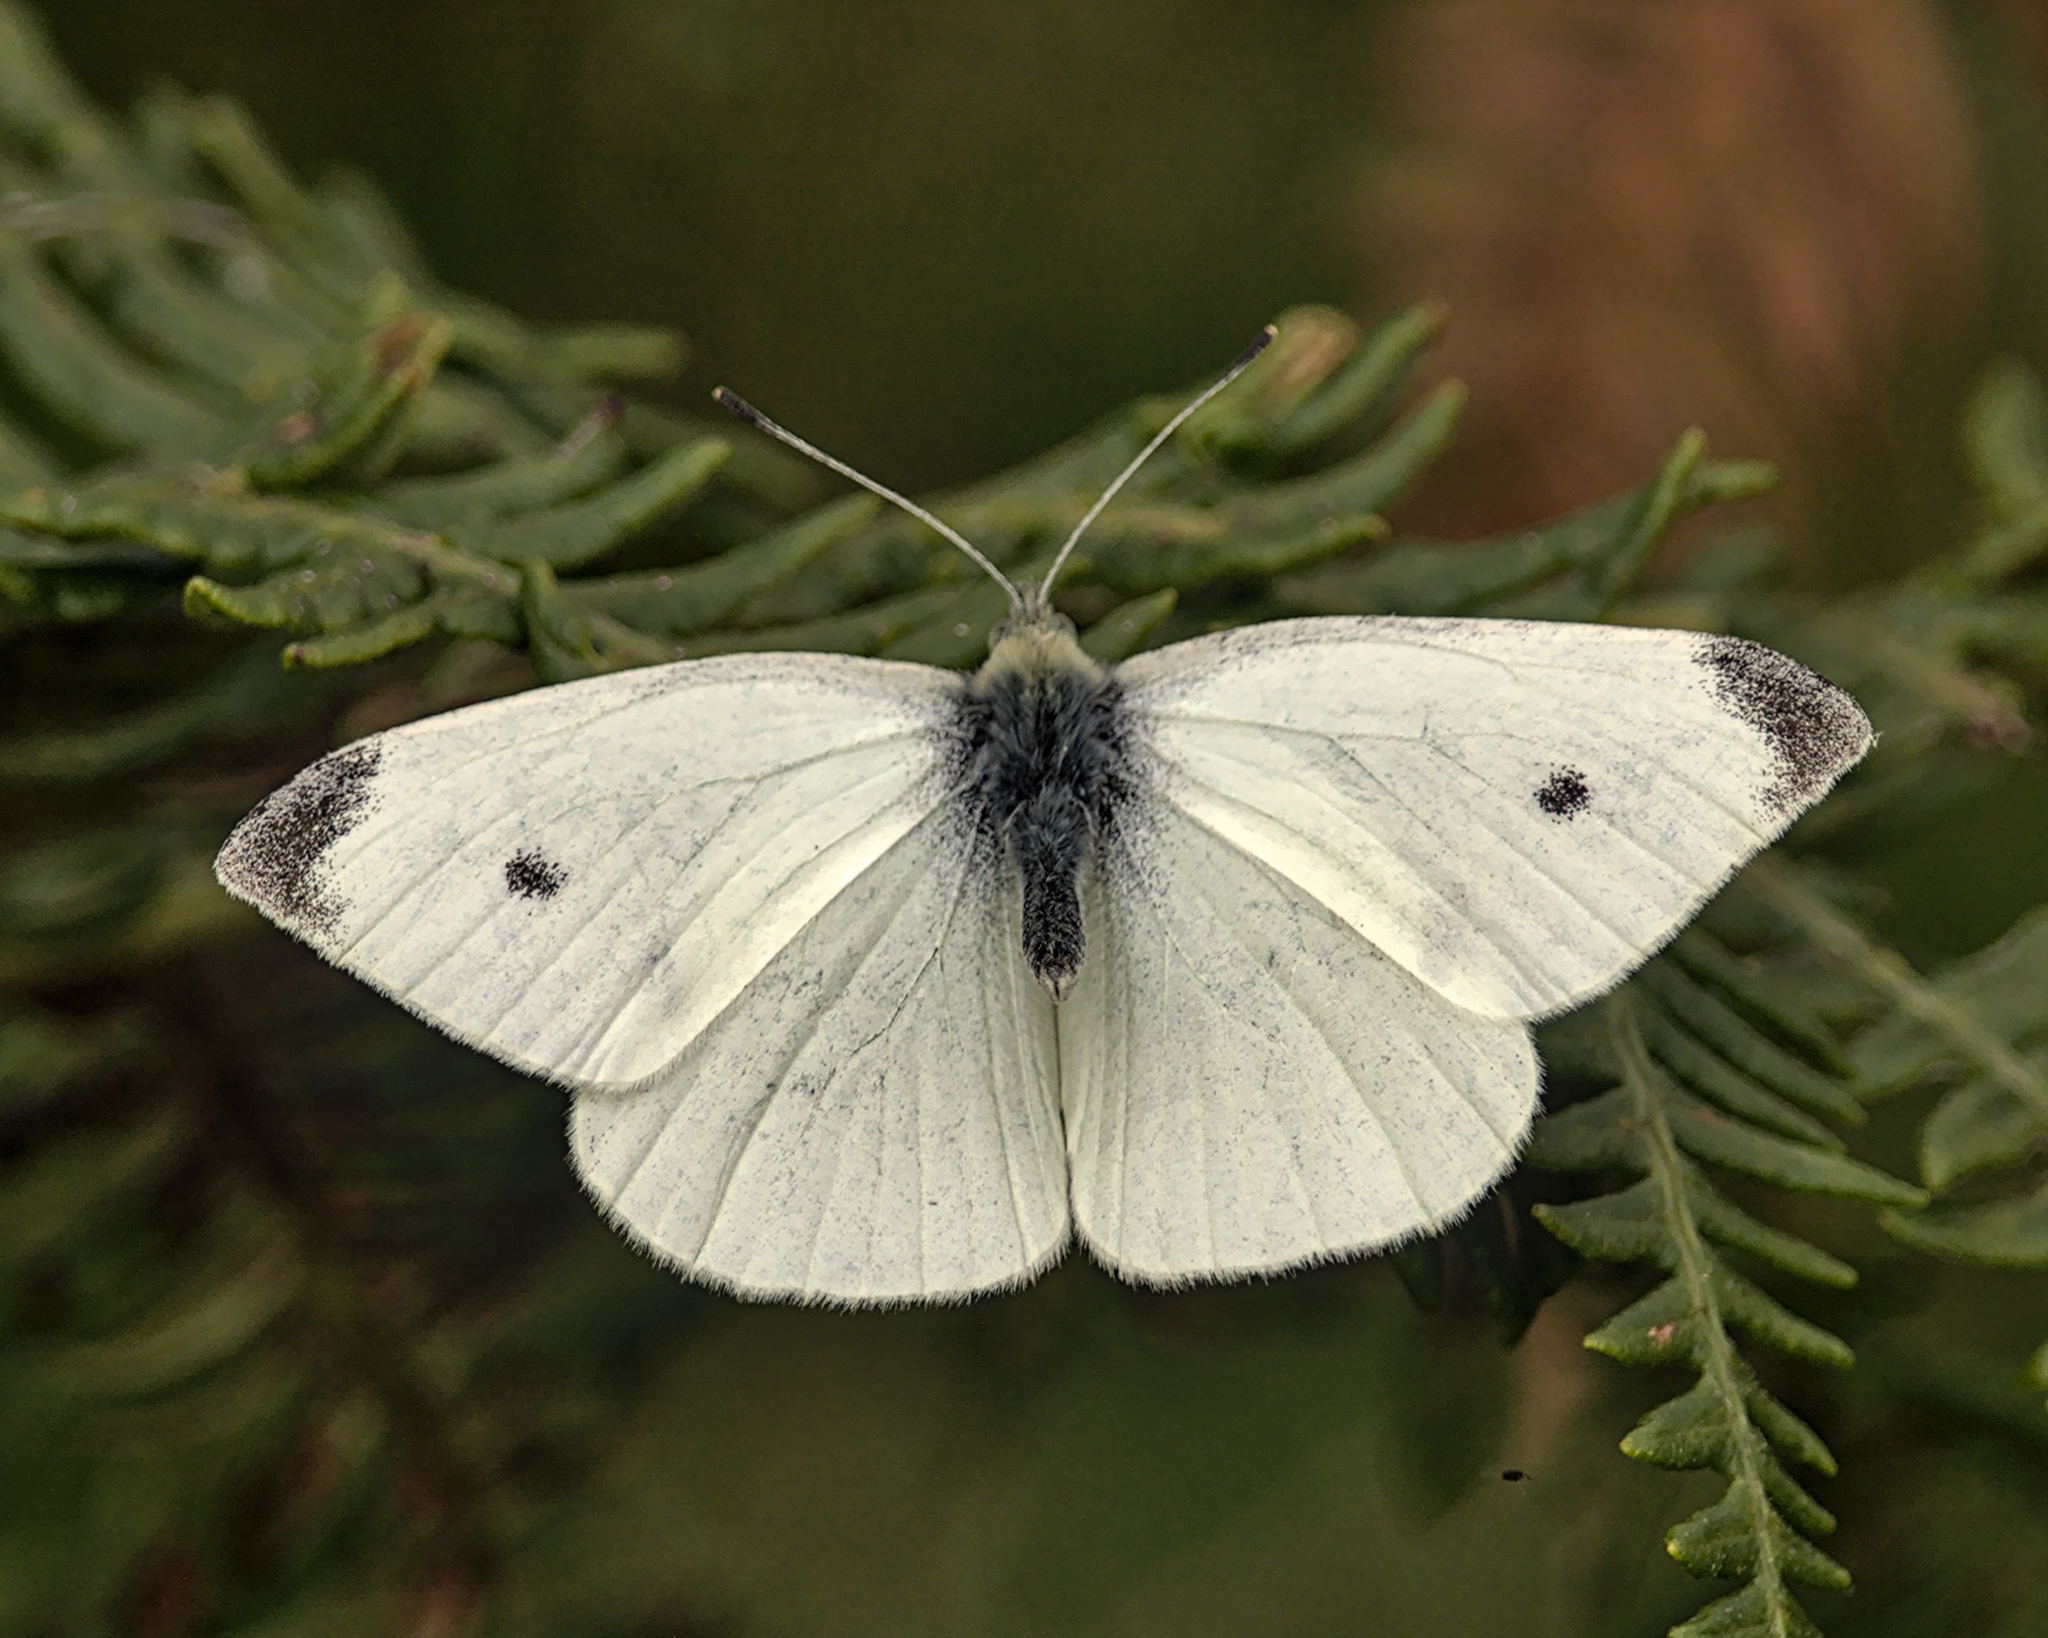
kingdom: Animalia
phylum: Arthropoda
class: Insecta
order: Lepidoptera
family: Pieridae
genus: Pieris
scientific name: Pieris rapae
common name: Small white
